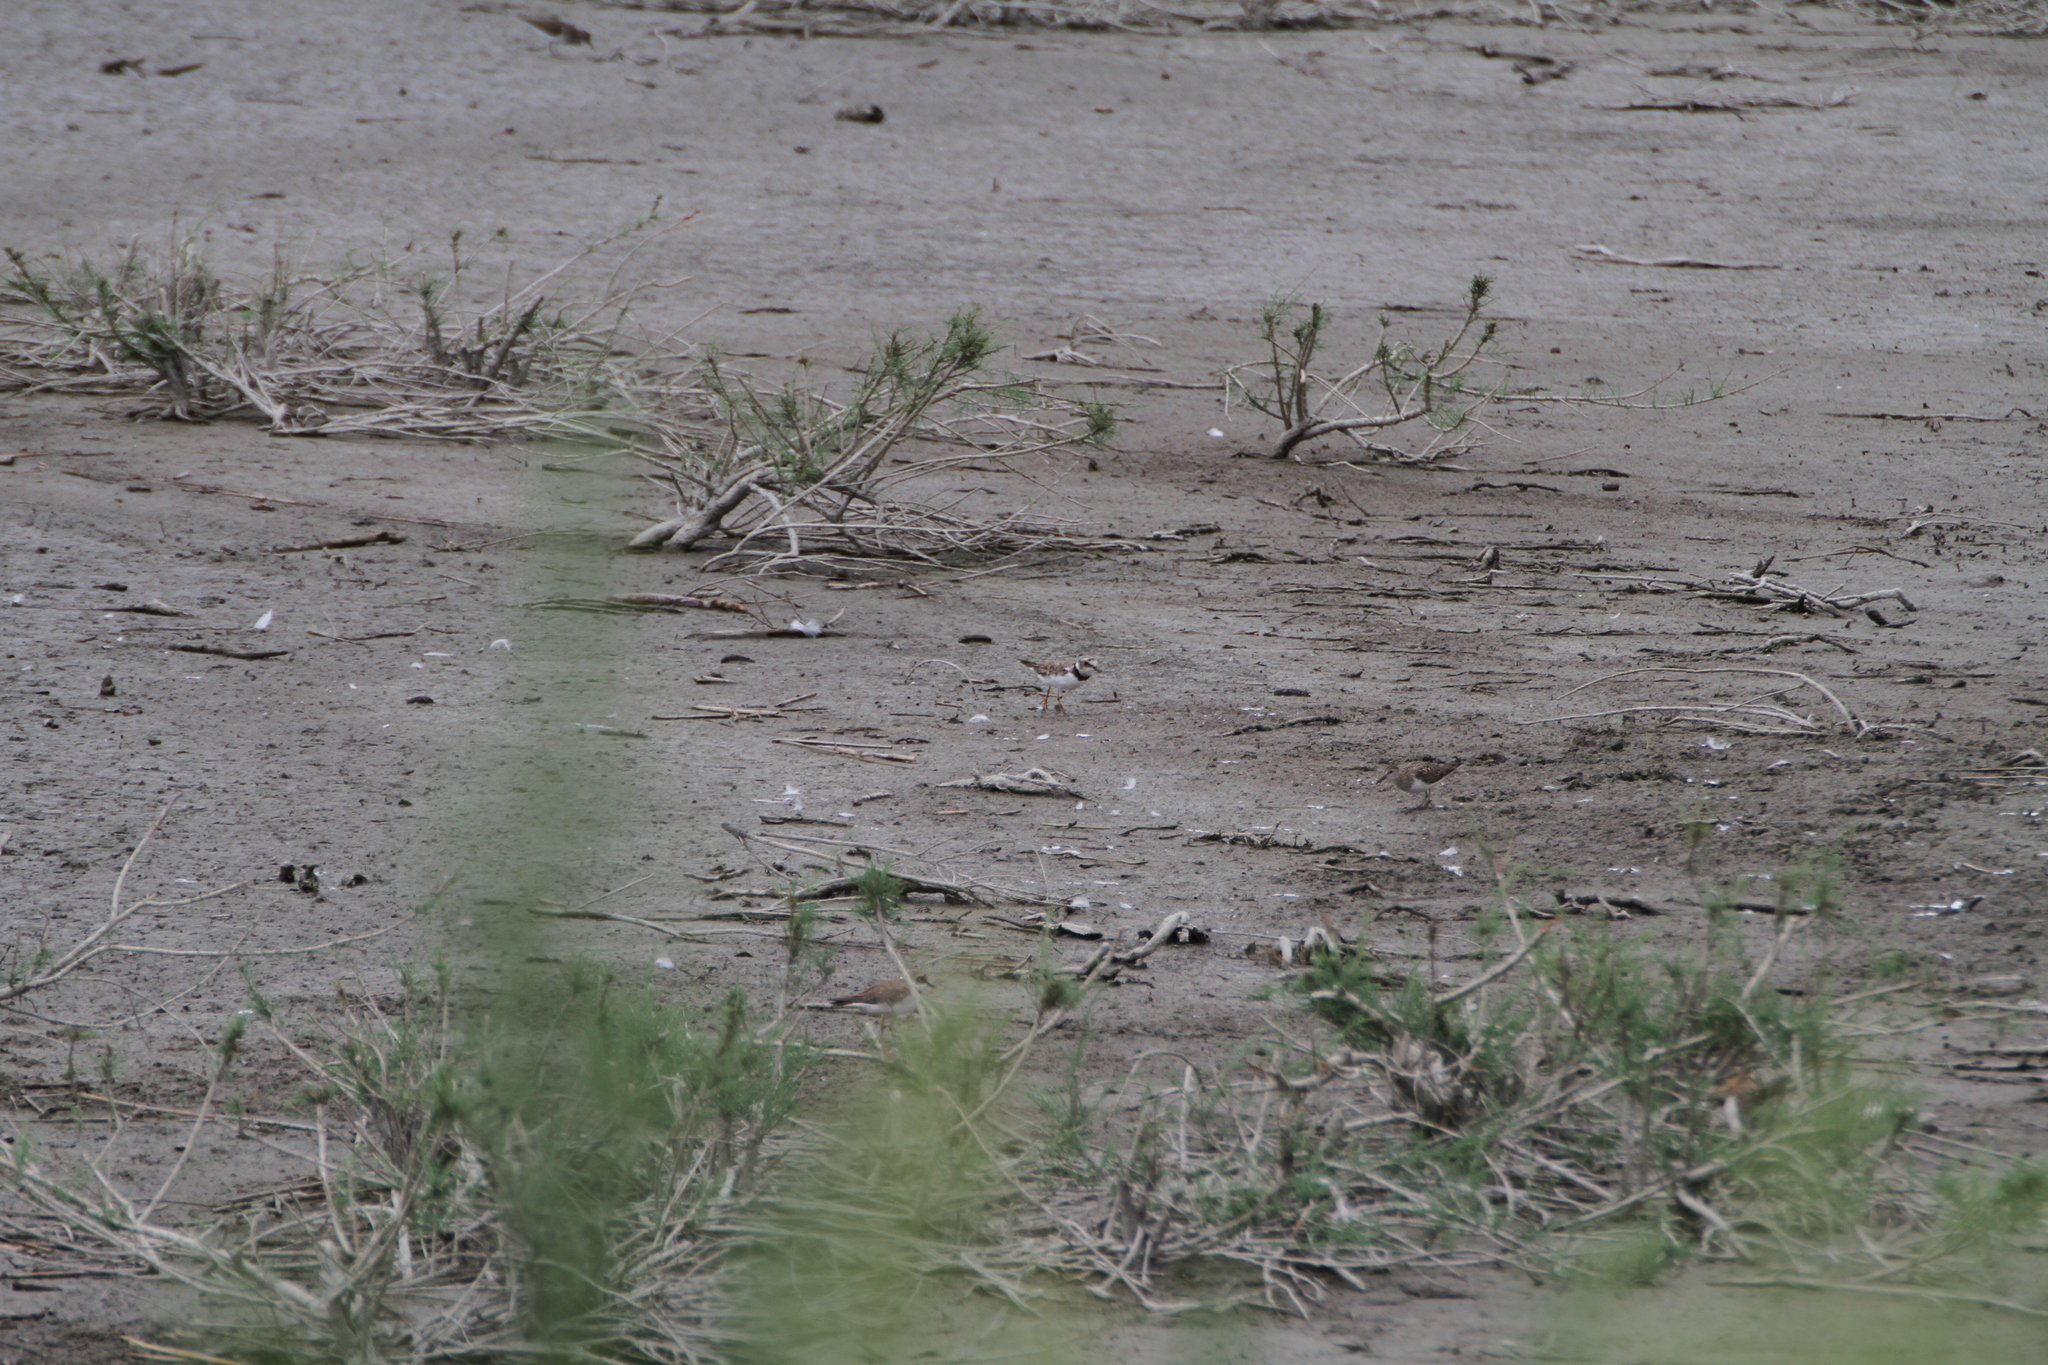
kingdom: Animalia
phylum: Chordata
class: Aves
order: Charadriiformes
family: Charadriidae
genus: Charadrius
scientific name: Charadrius dubius
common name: Little ringed plover
